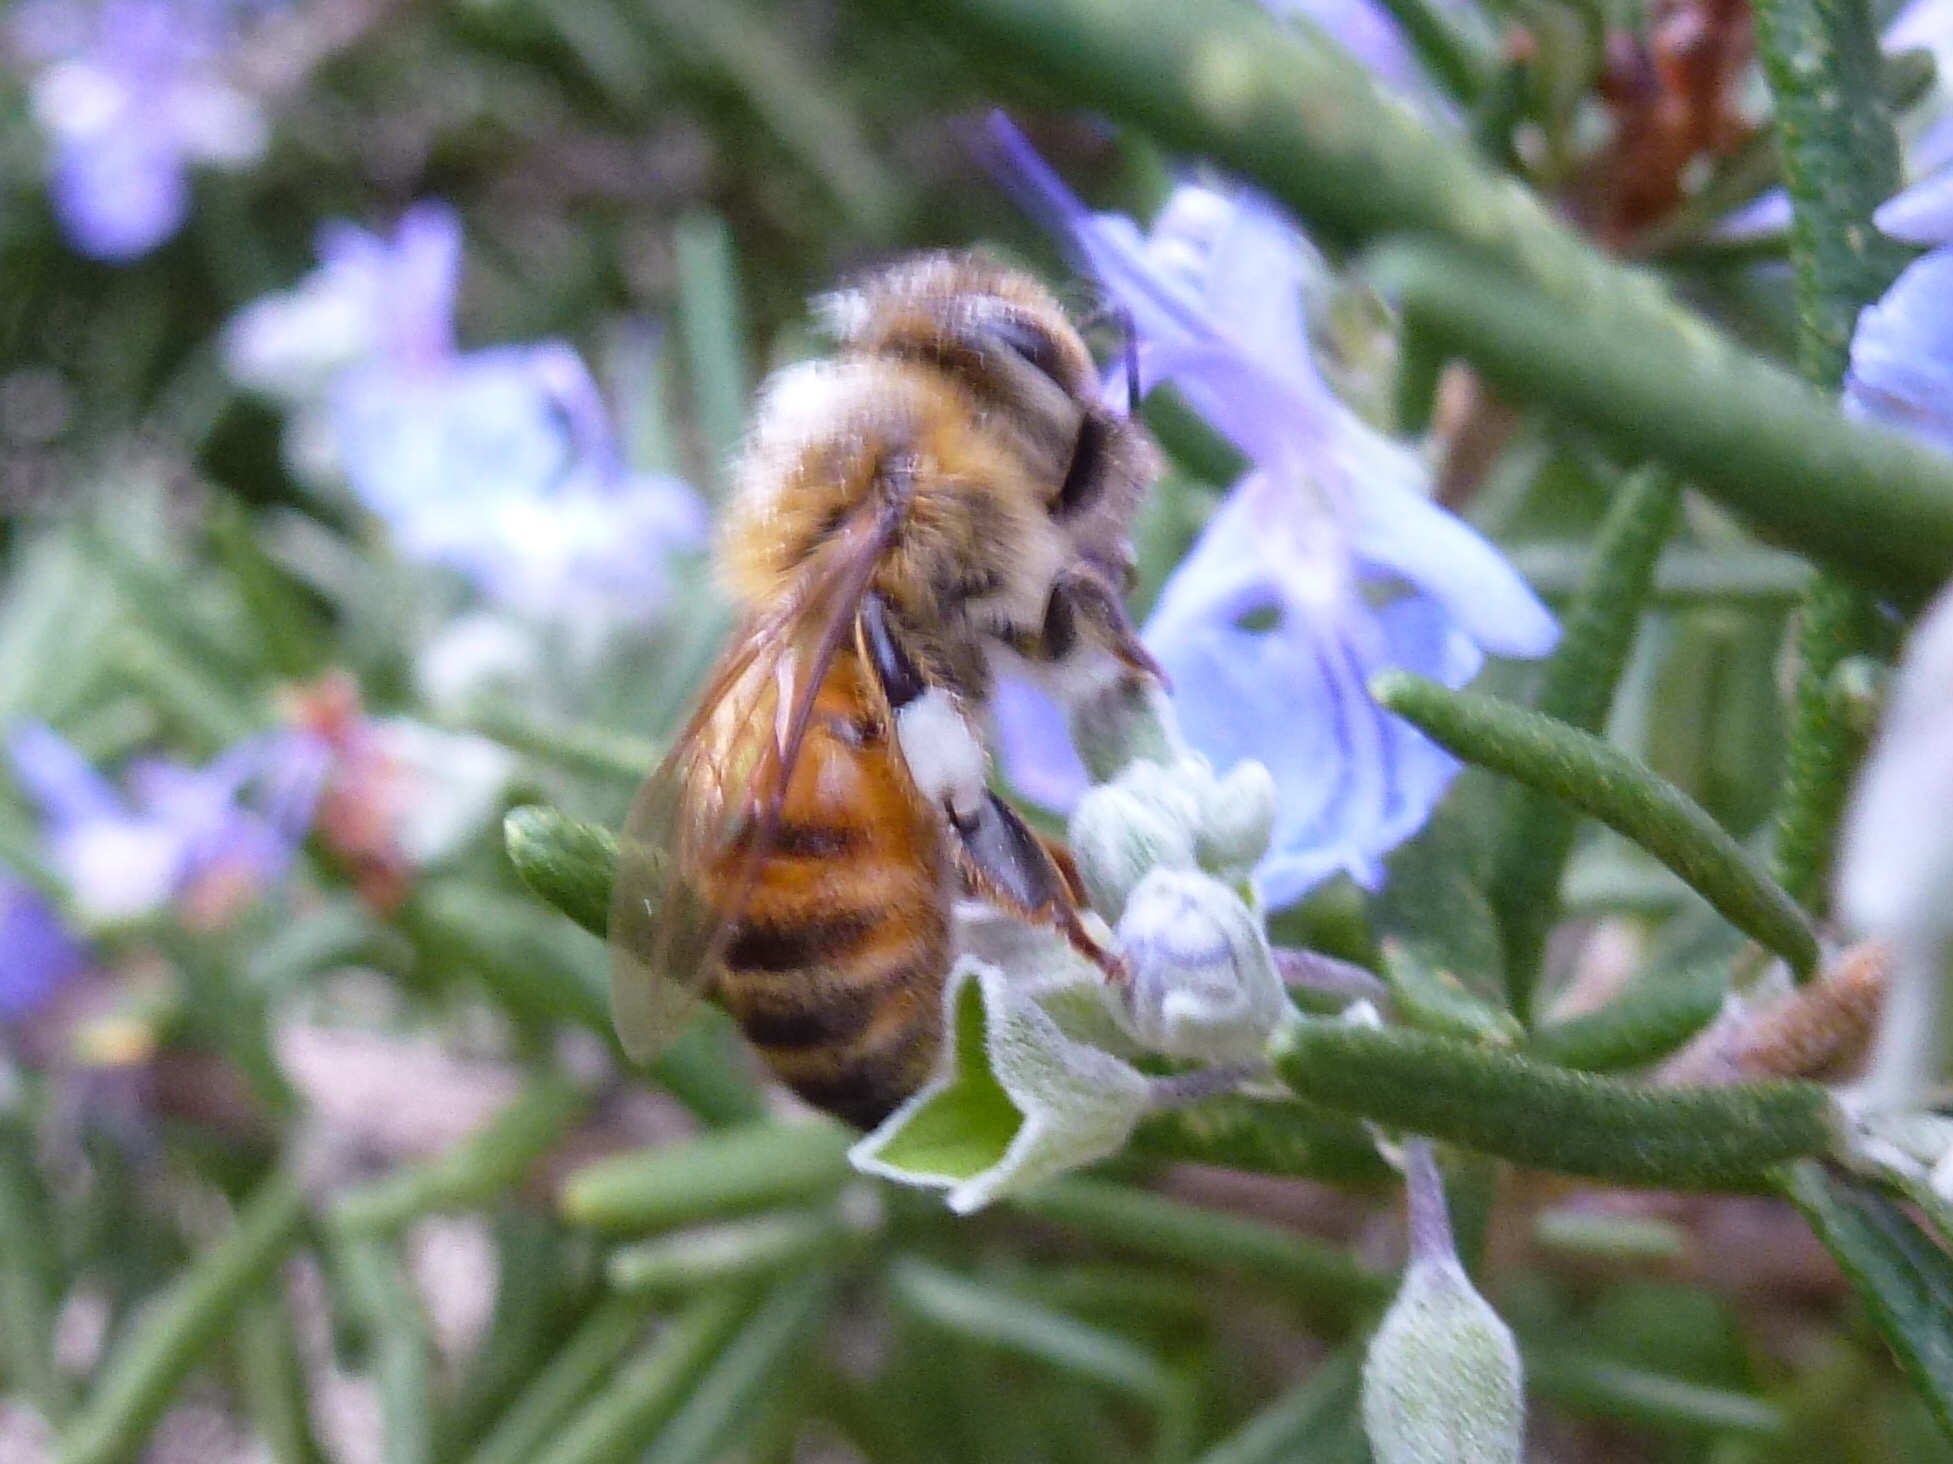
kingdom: Animalia
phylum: Arthropoda
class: Insecta
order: Hymenoptera
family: Apidae
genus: Apis
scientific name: Apis mellifera
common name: Honey bee
